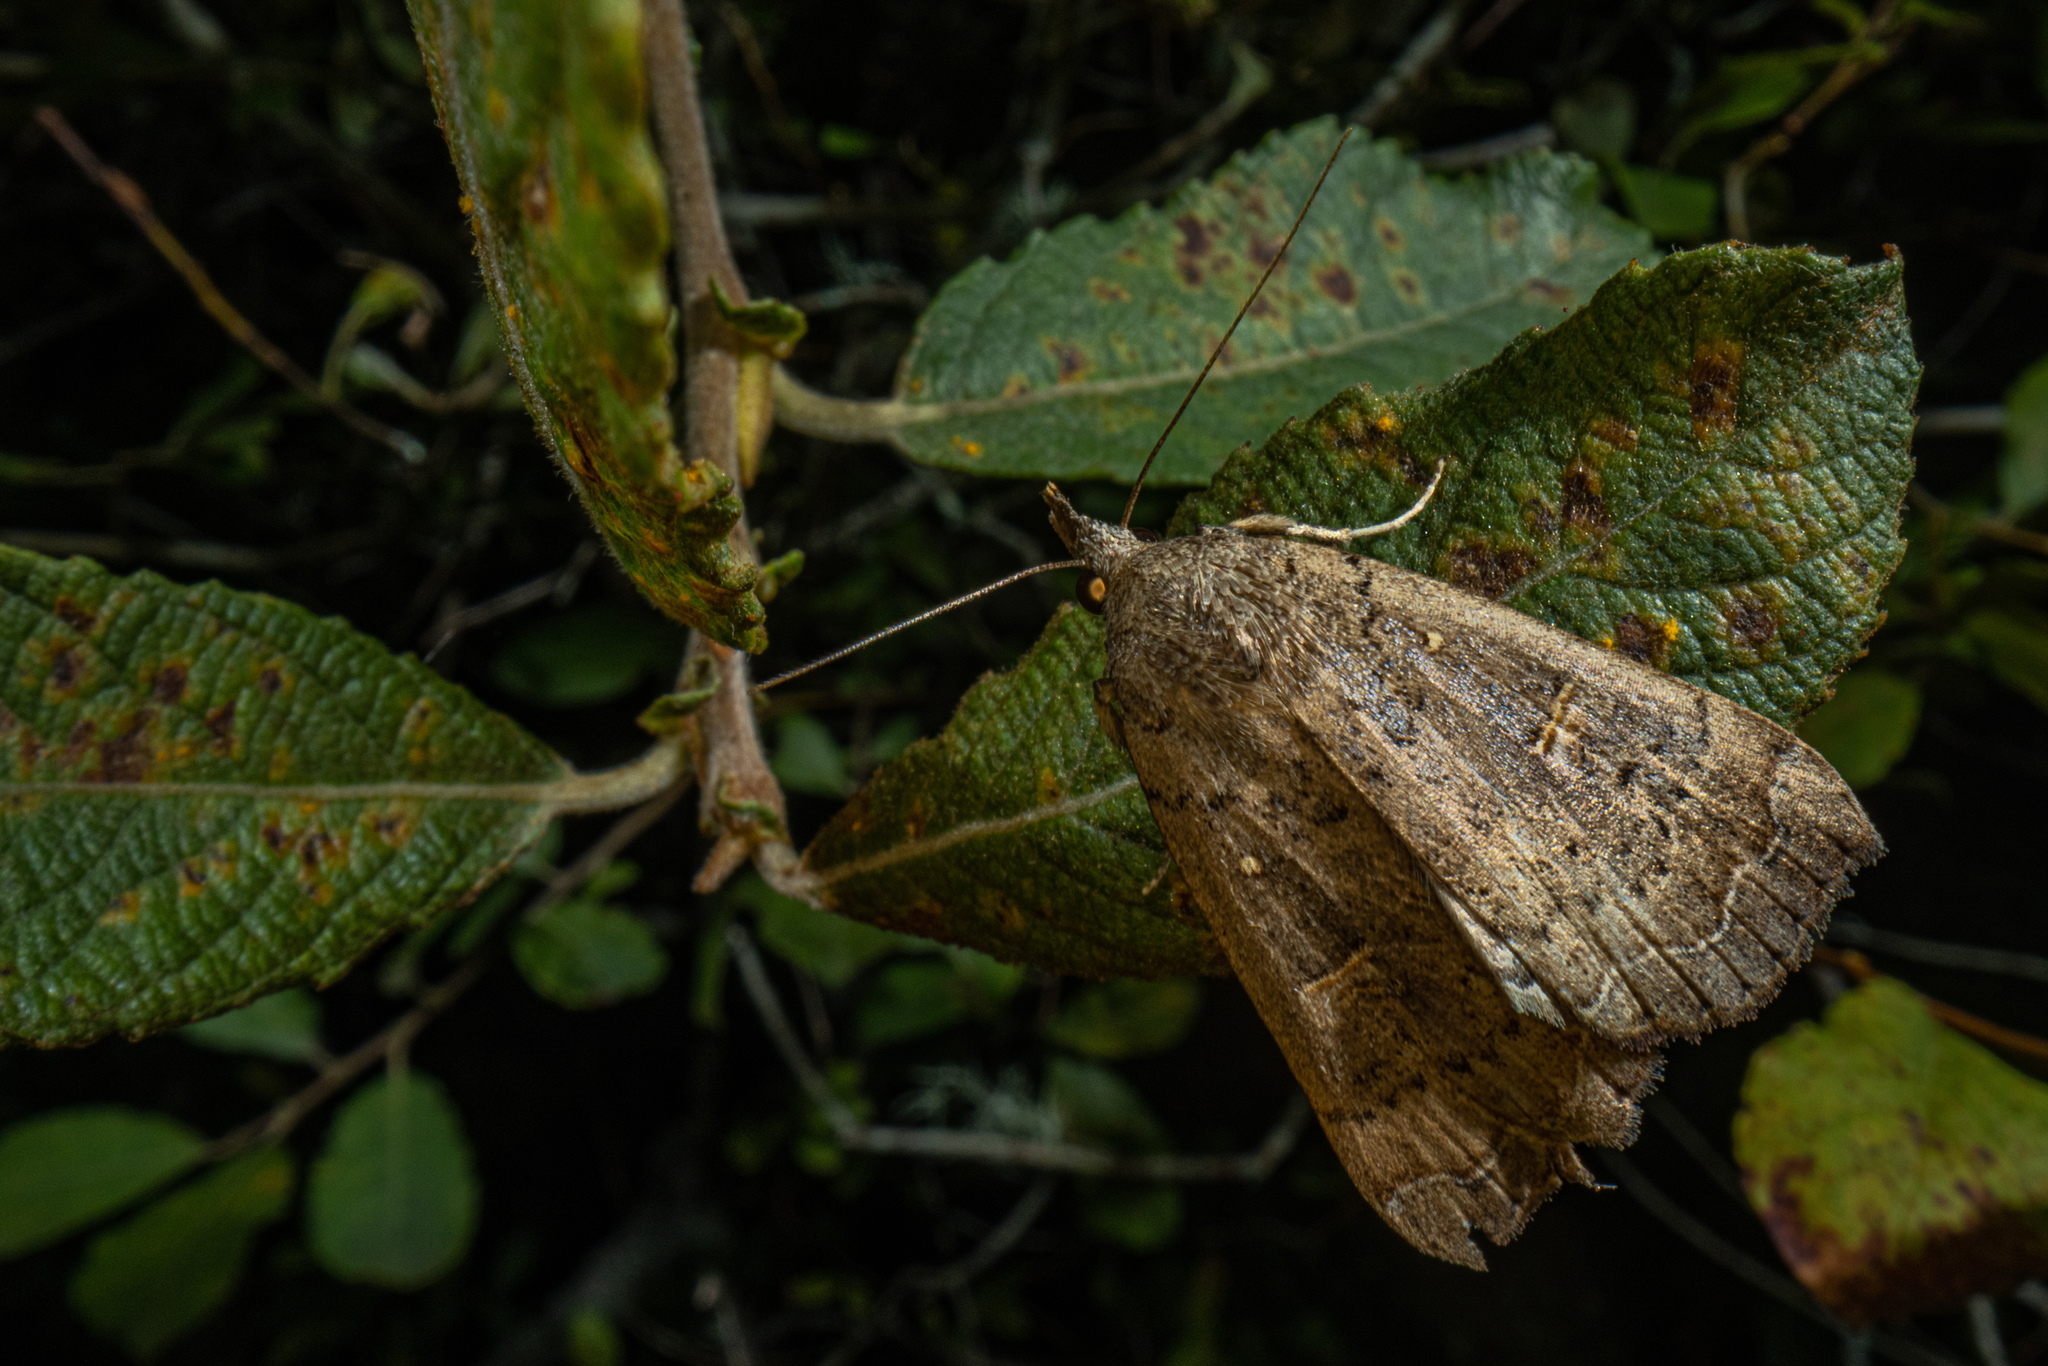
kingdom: Animalia
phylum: Arthropoda
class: Insecta
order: Lepidoptera
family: Erebidae
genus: Rhapsa
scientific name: Rhapsa scotosialis
